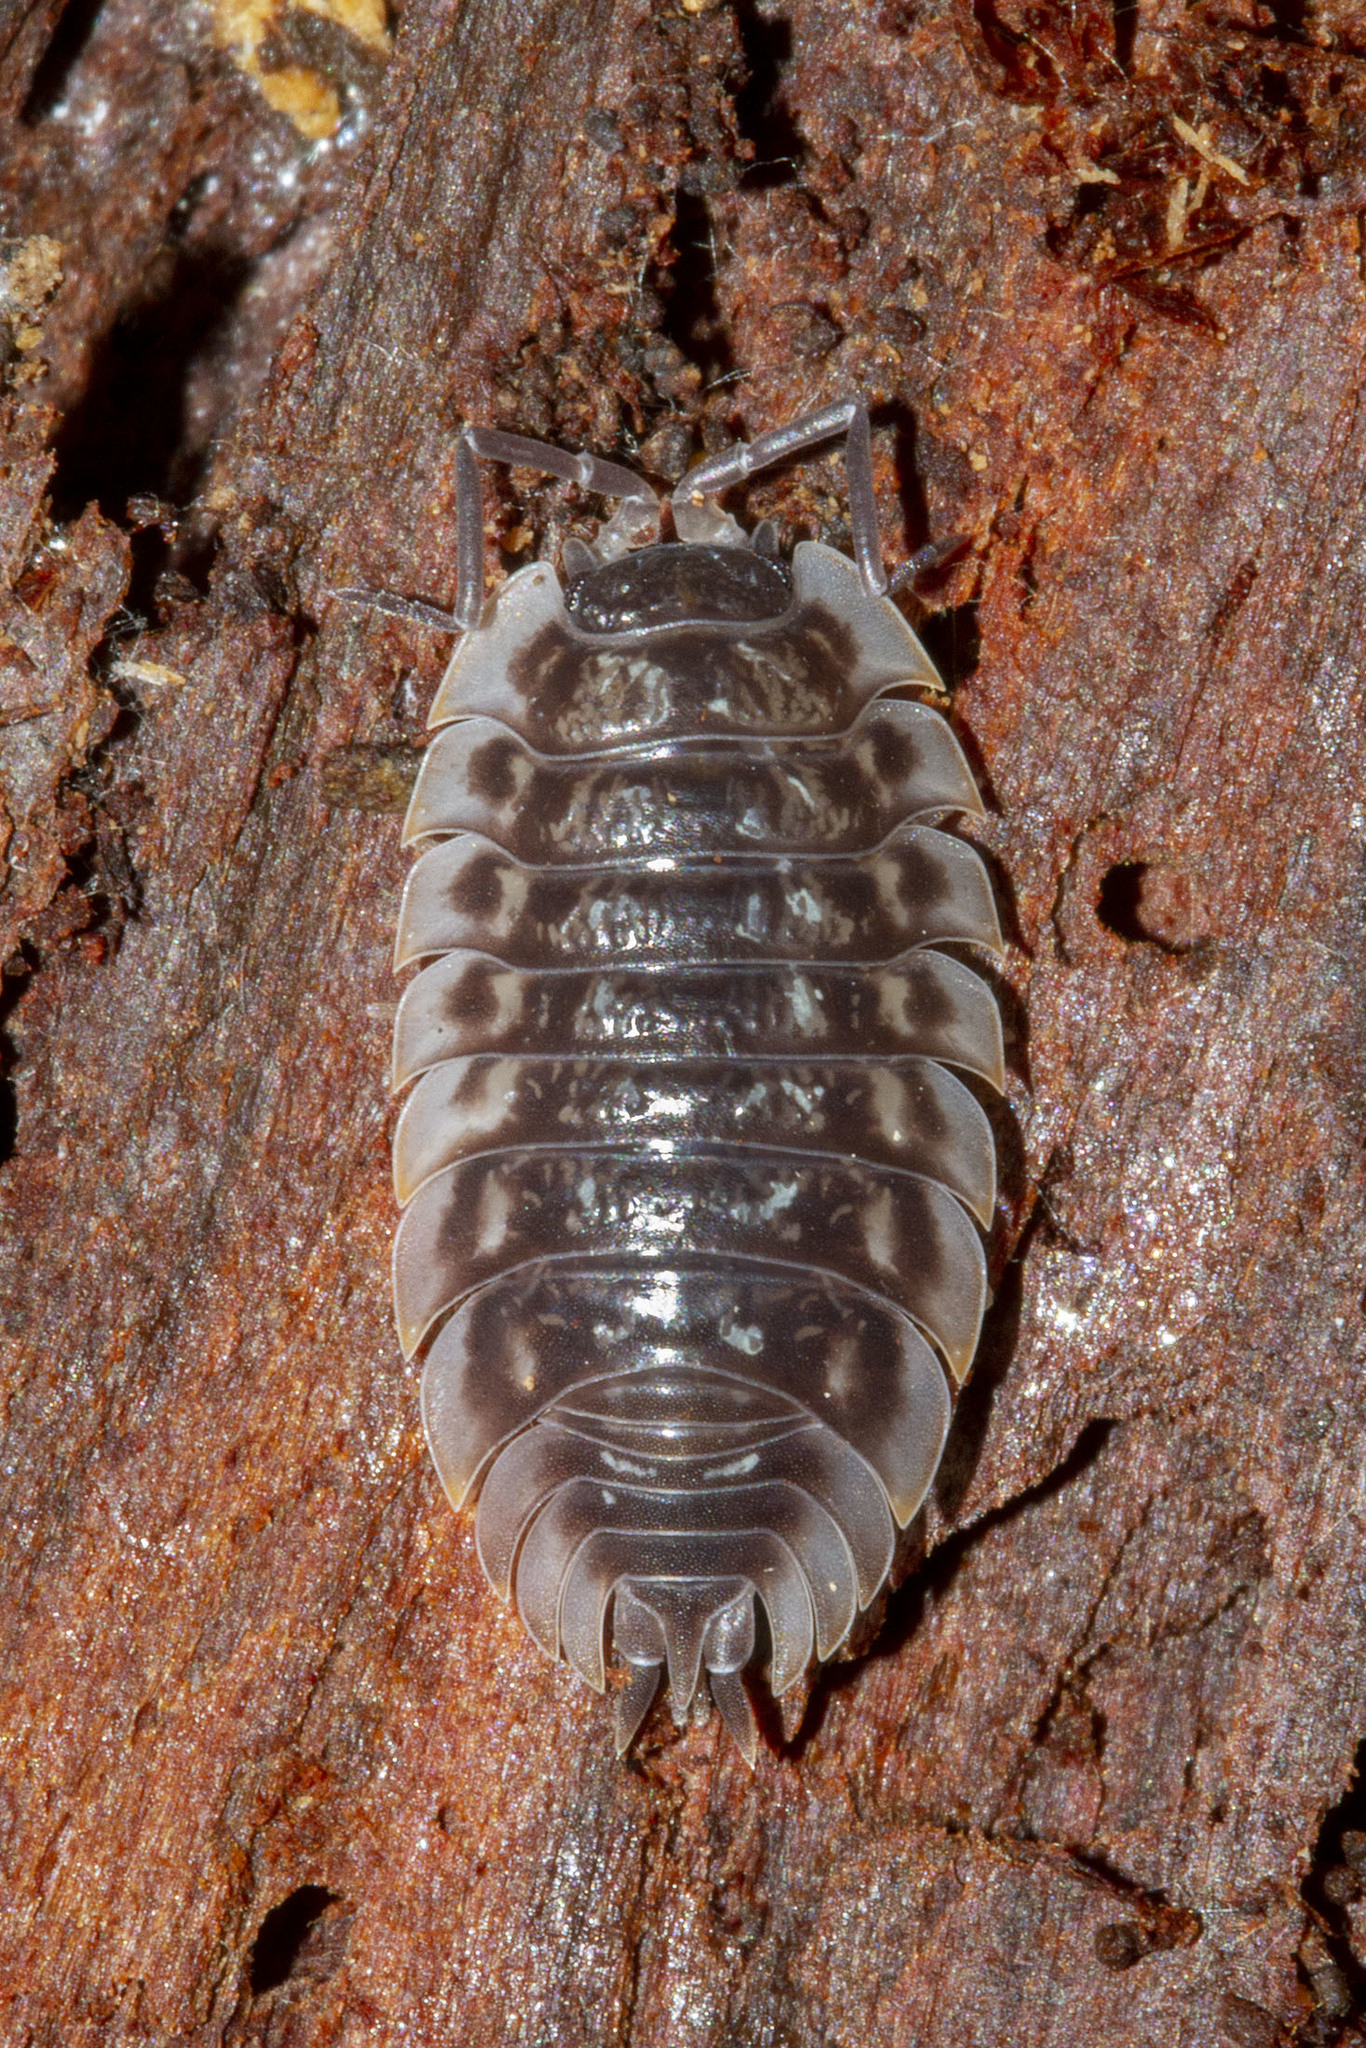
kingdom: Animalia
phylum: Arthropoda
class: Malacostraca
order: Isopoda
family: Oniscidae
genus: Oniscus
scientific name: Oniscus asellus
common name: Common shiny woodlouse
